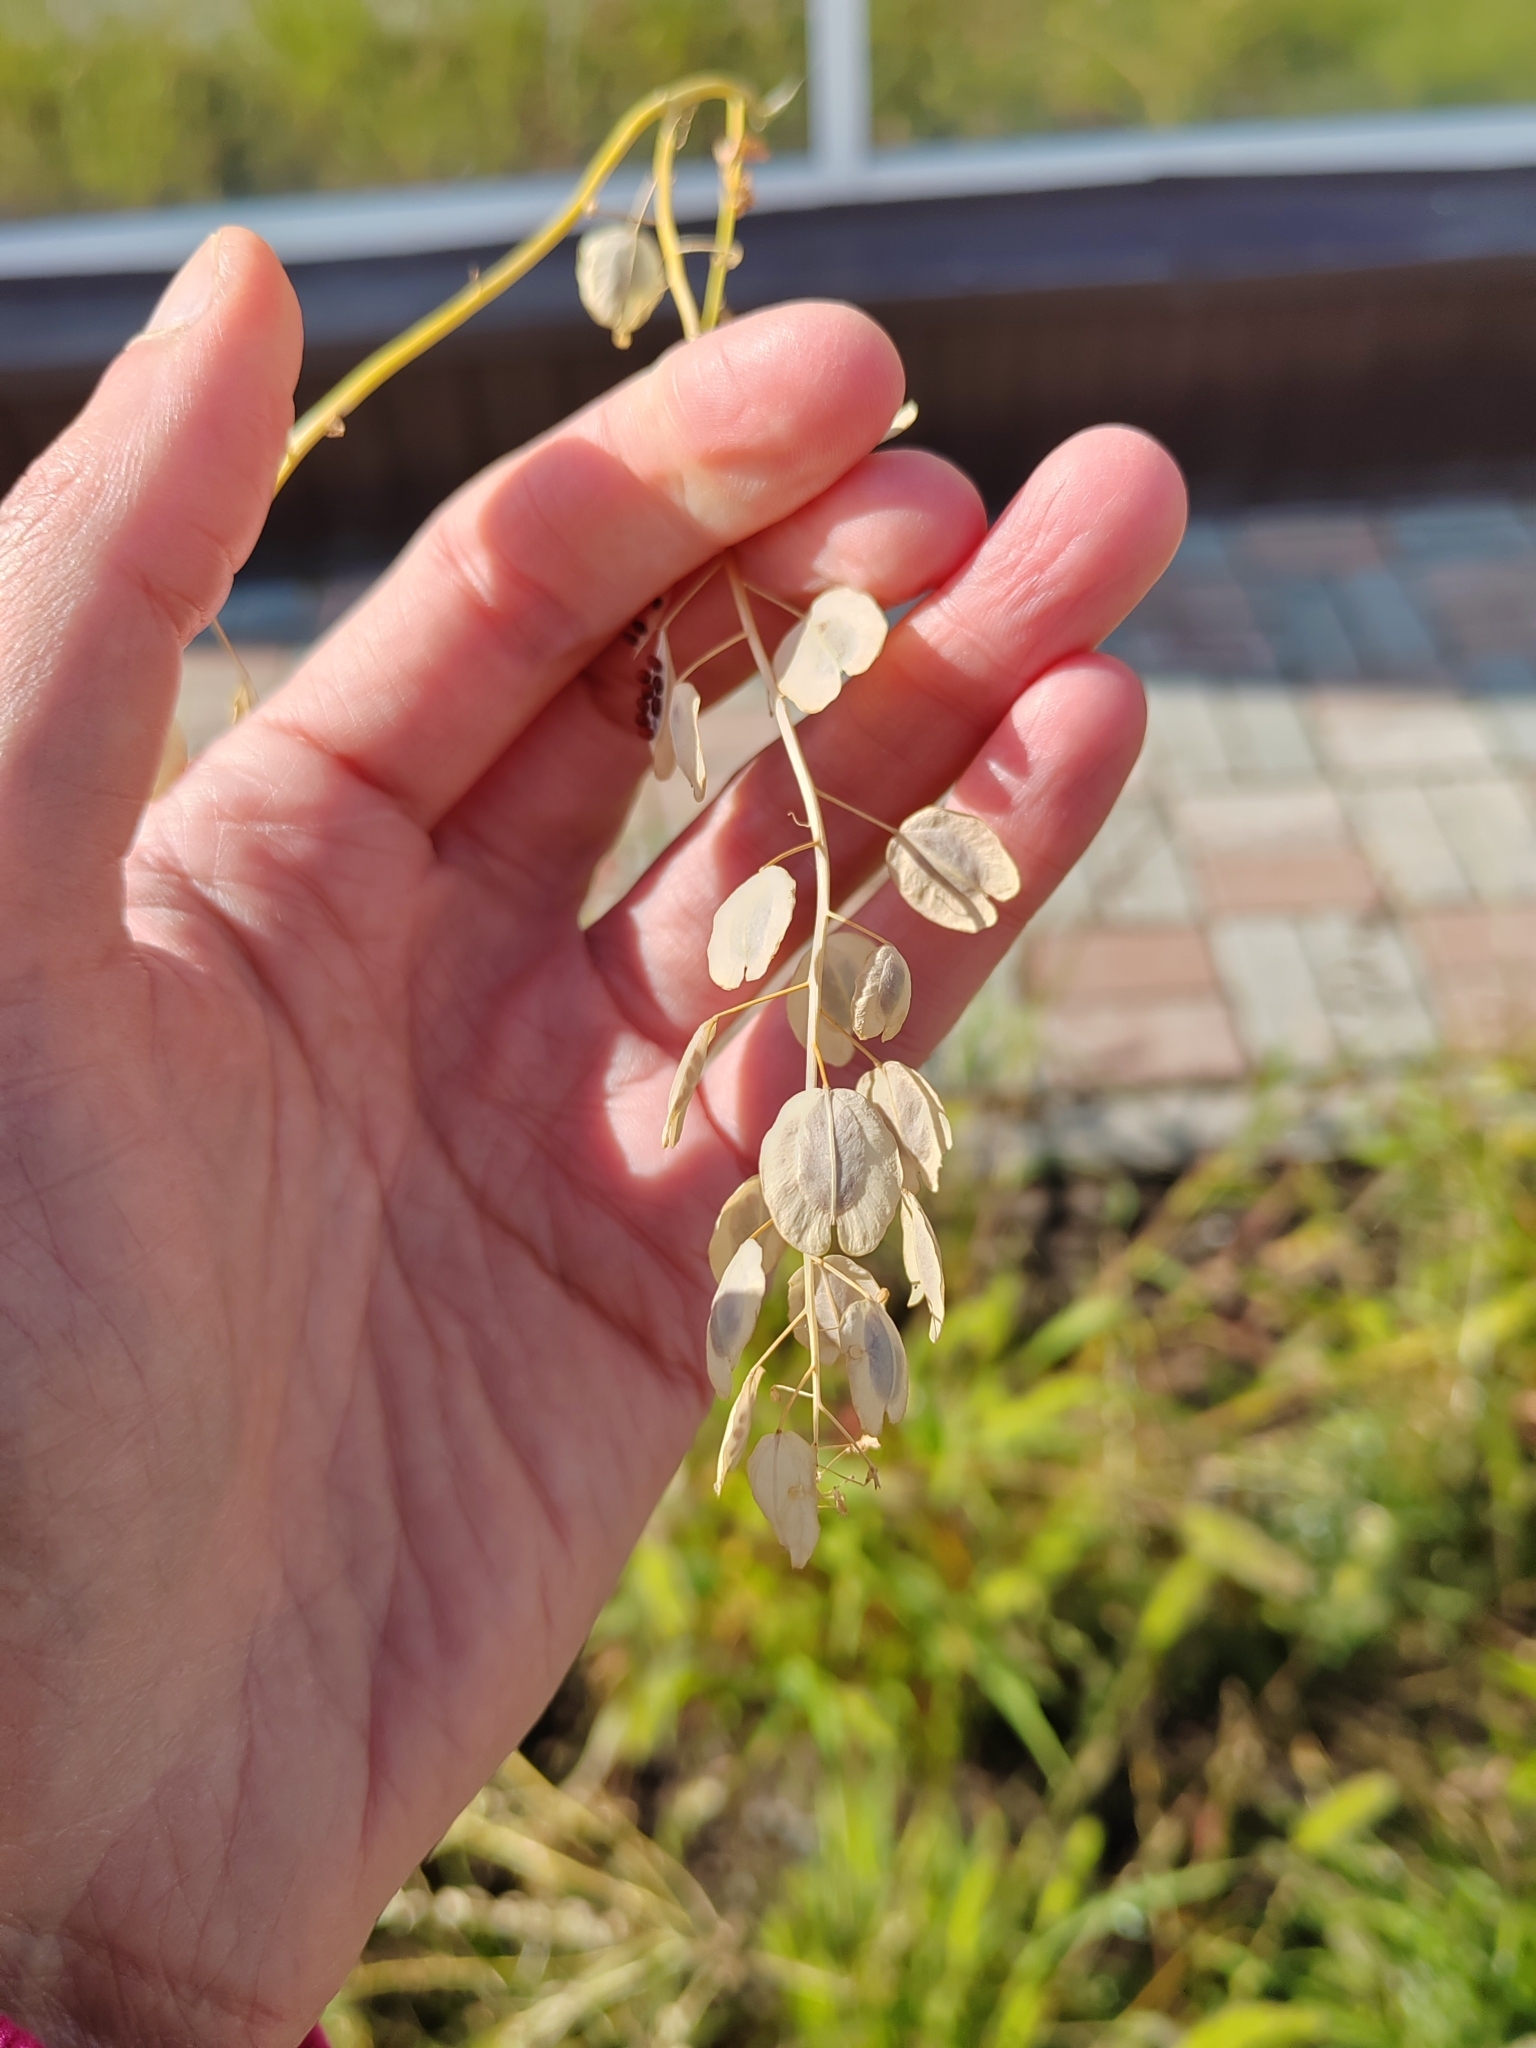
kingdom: Plantae
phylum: Tracheophyta
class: Magnoliopsida
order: Brassicales
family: Brassicaceae
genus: Thlaspi
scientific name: Thlaspi arvense
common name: Field pennycress
